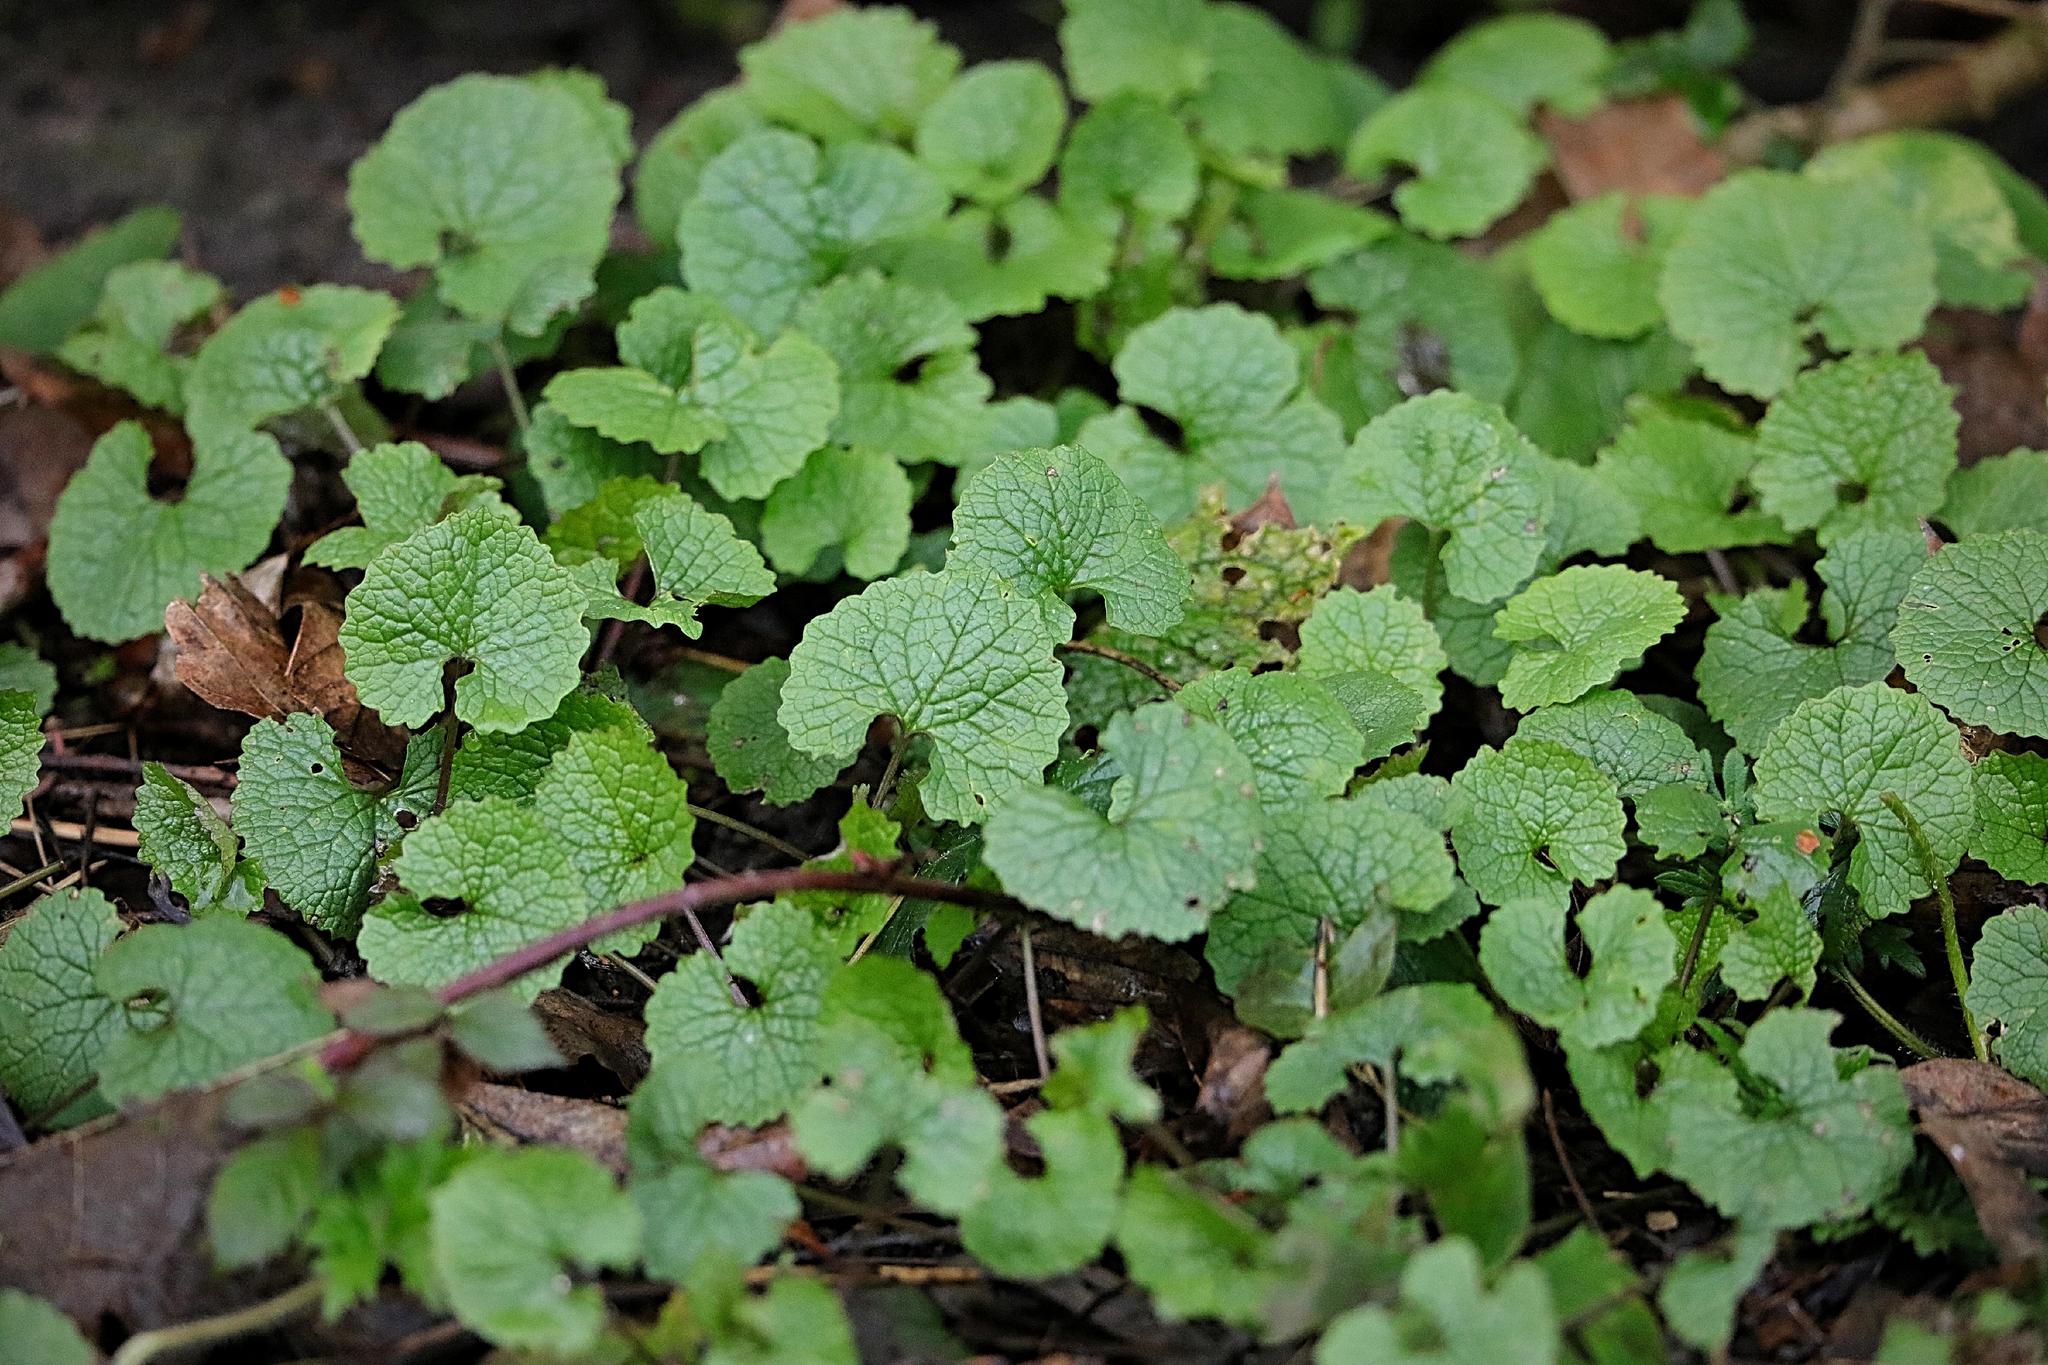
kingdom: Plantae
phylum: Tracheophyta
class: Magnoliopsida
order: Brassicales
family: Brassicaceae
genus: Alliaria
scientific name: Alliaria petiolata
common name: Garlic mustard
